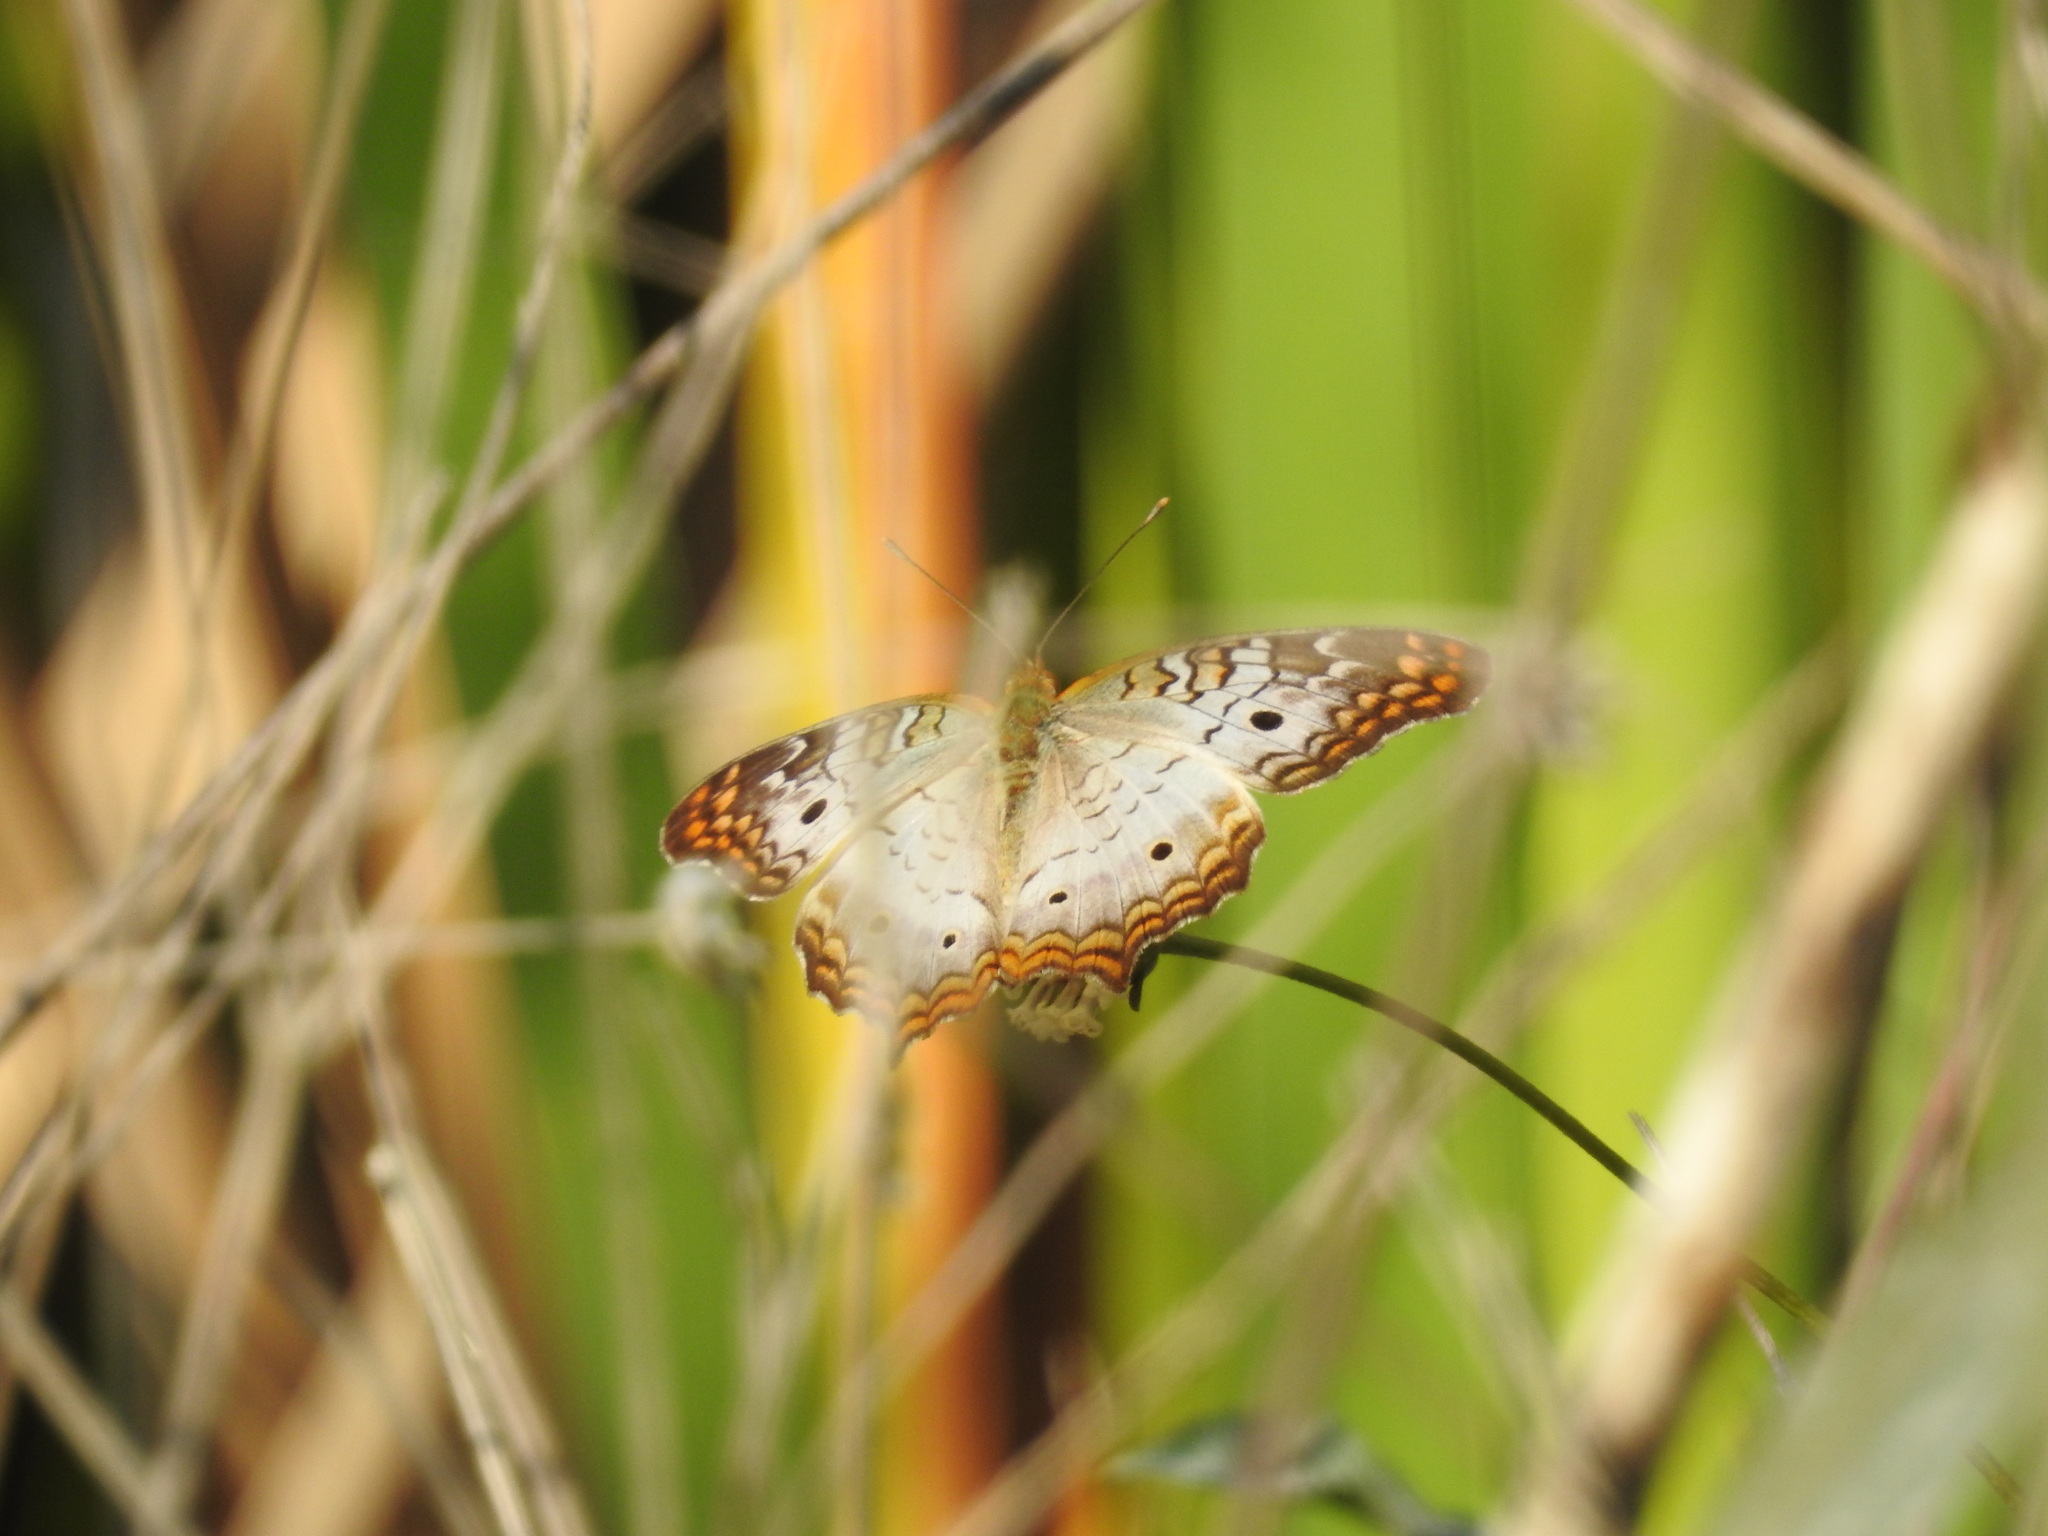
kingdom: Animalia
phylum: Arthropoda
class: Insecta
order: Lepidoptera
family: Nymphalidae
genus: Anartia
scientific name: Anartia jatrophae
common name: White peacock
